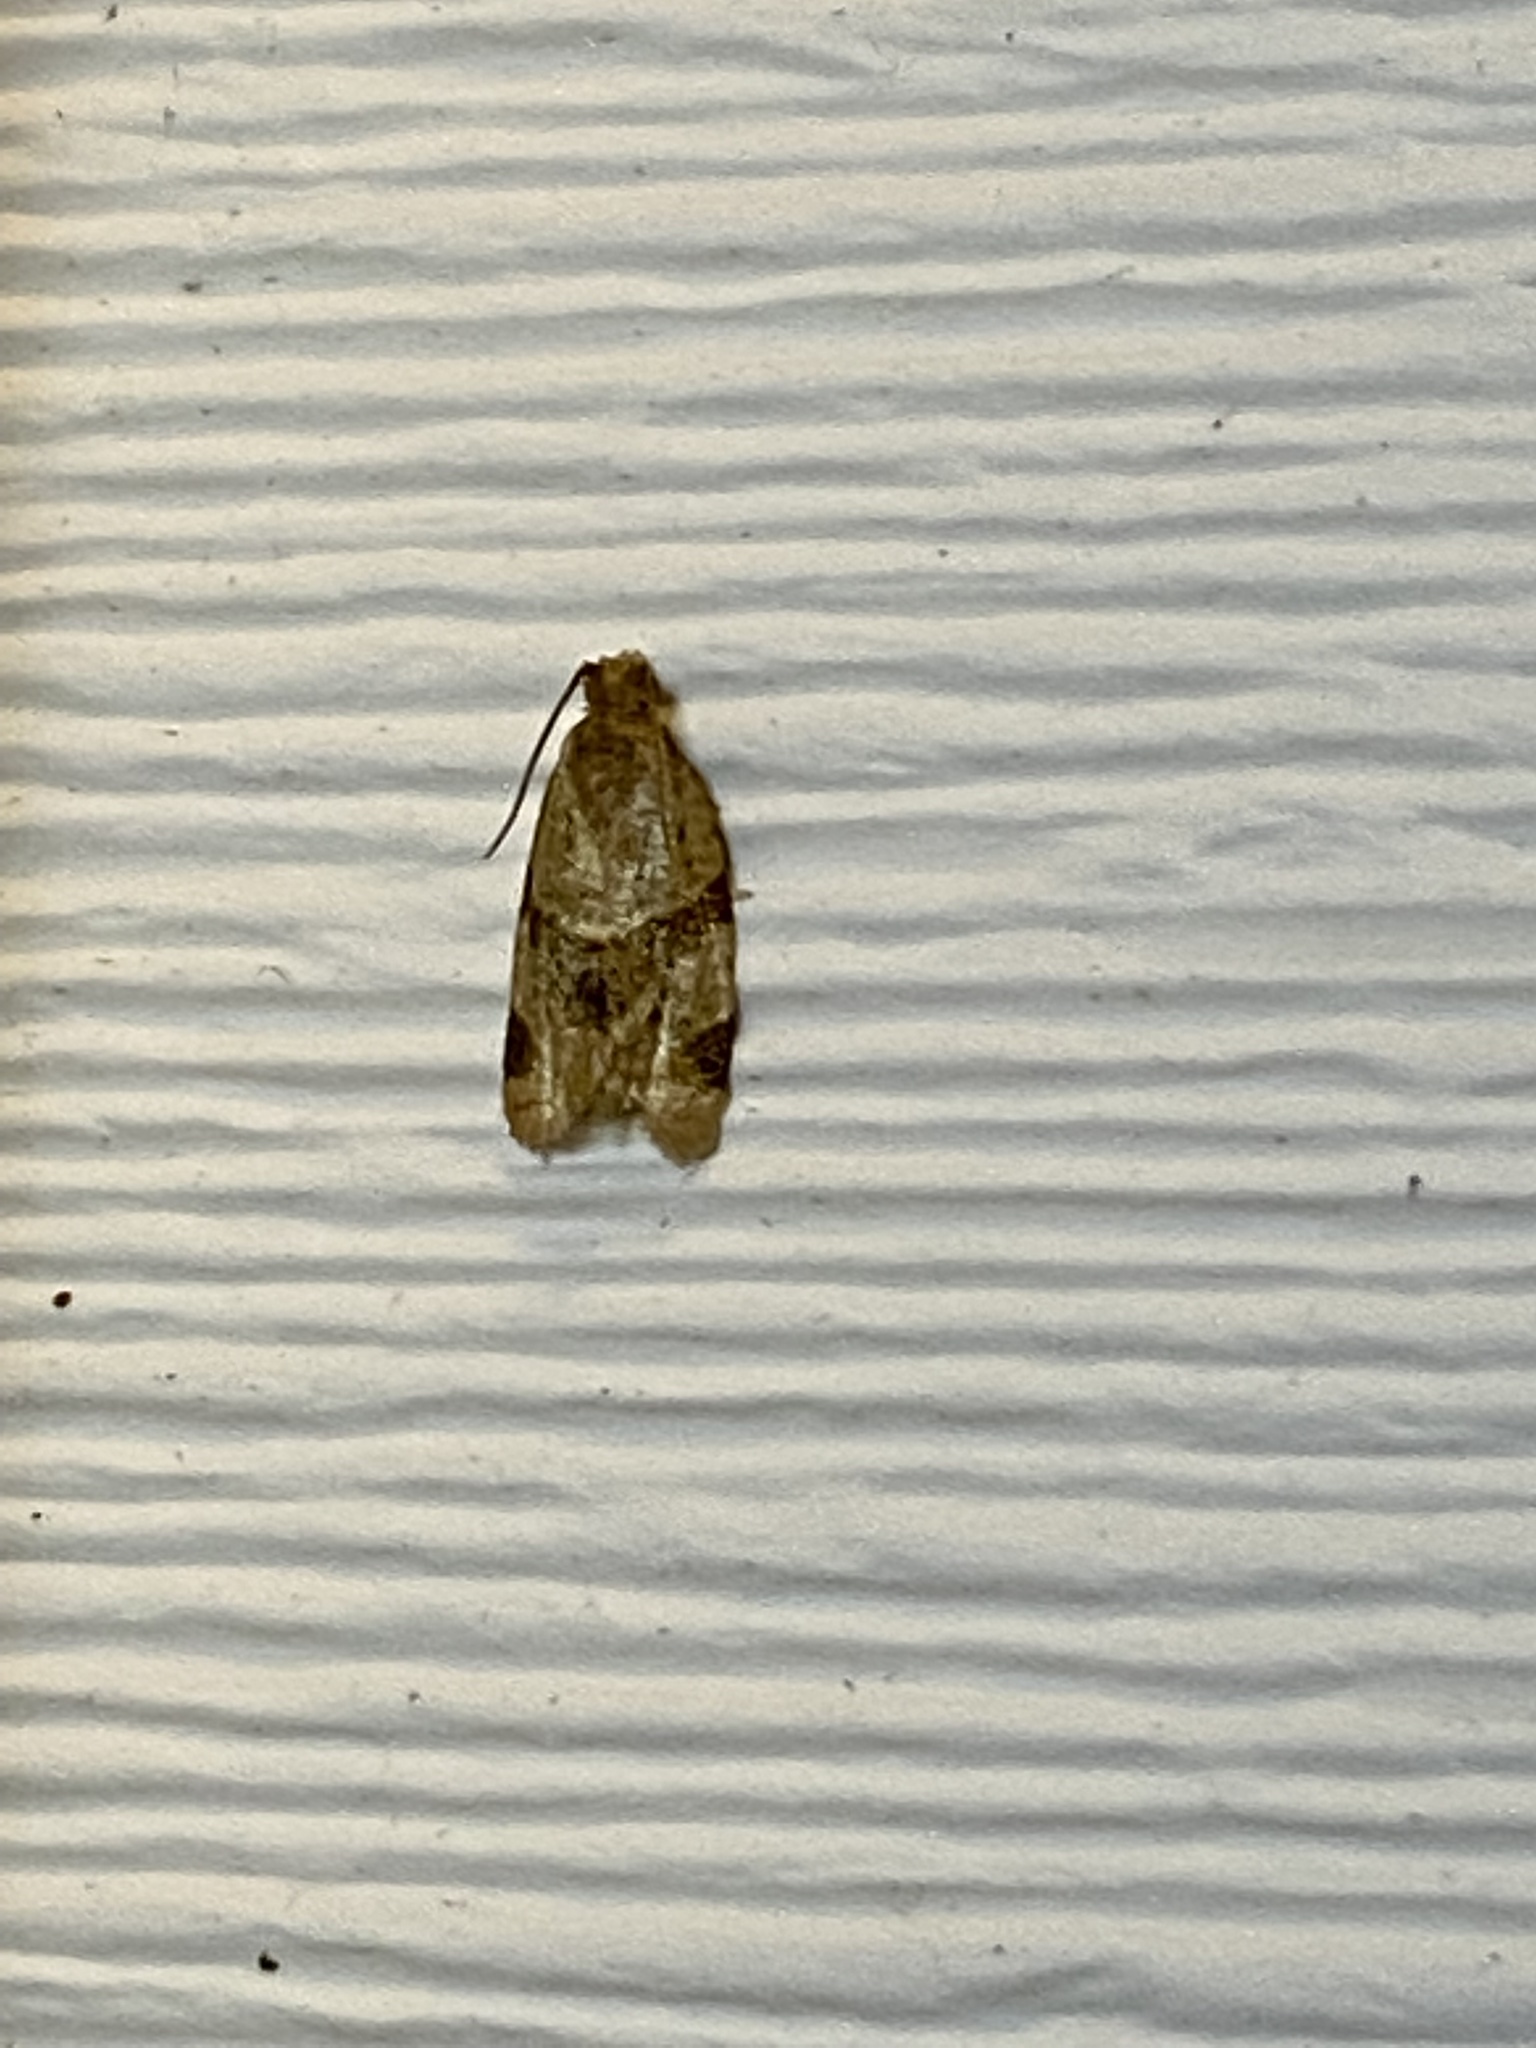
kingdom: Animalia
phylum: Arthropoda
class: Insecta
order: Lepidoptera
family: Tortricidae
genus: Clepsis
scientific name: Clepsis peritana
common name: Garden tortrix
